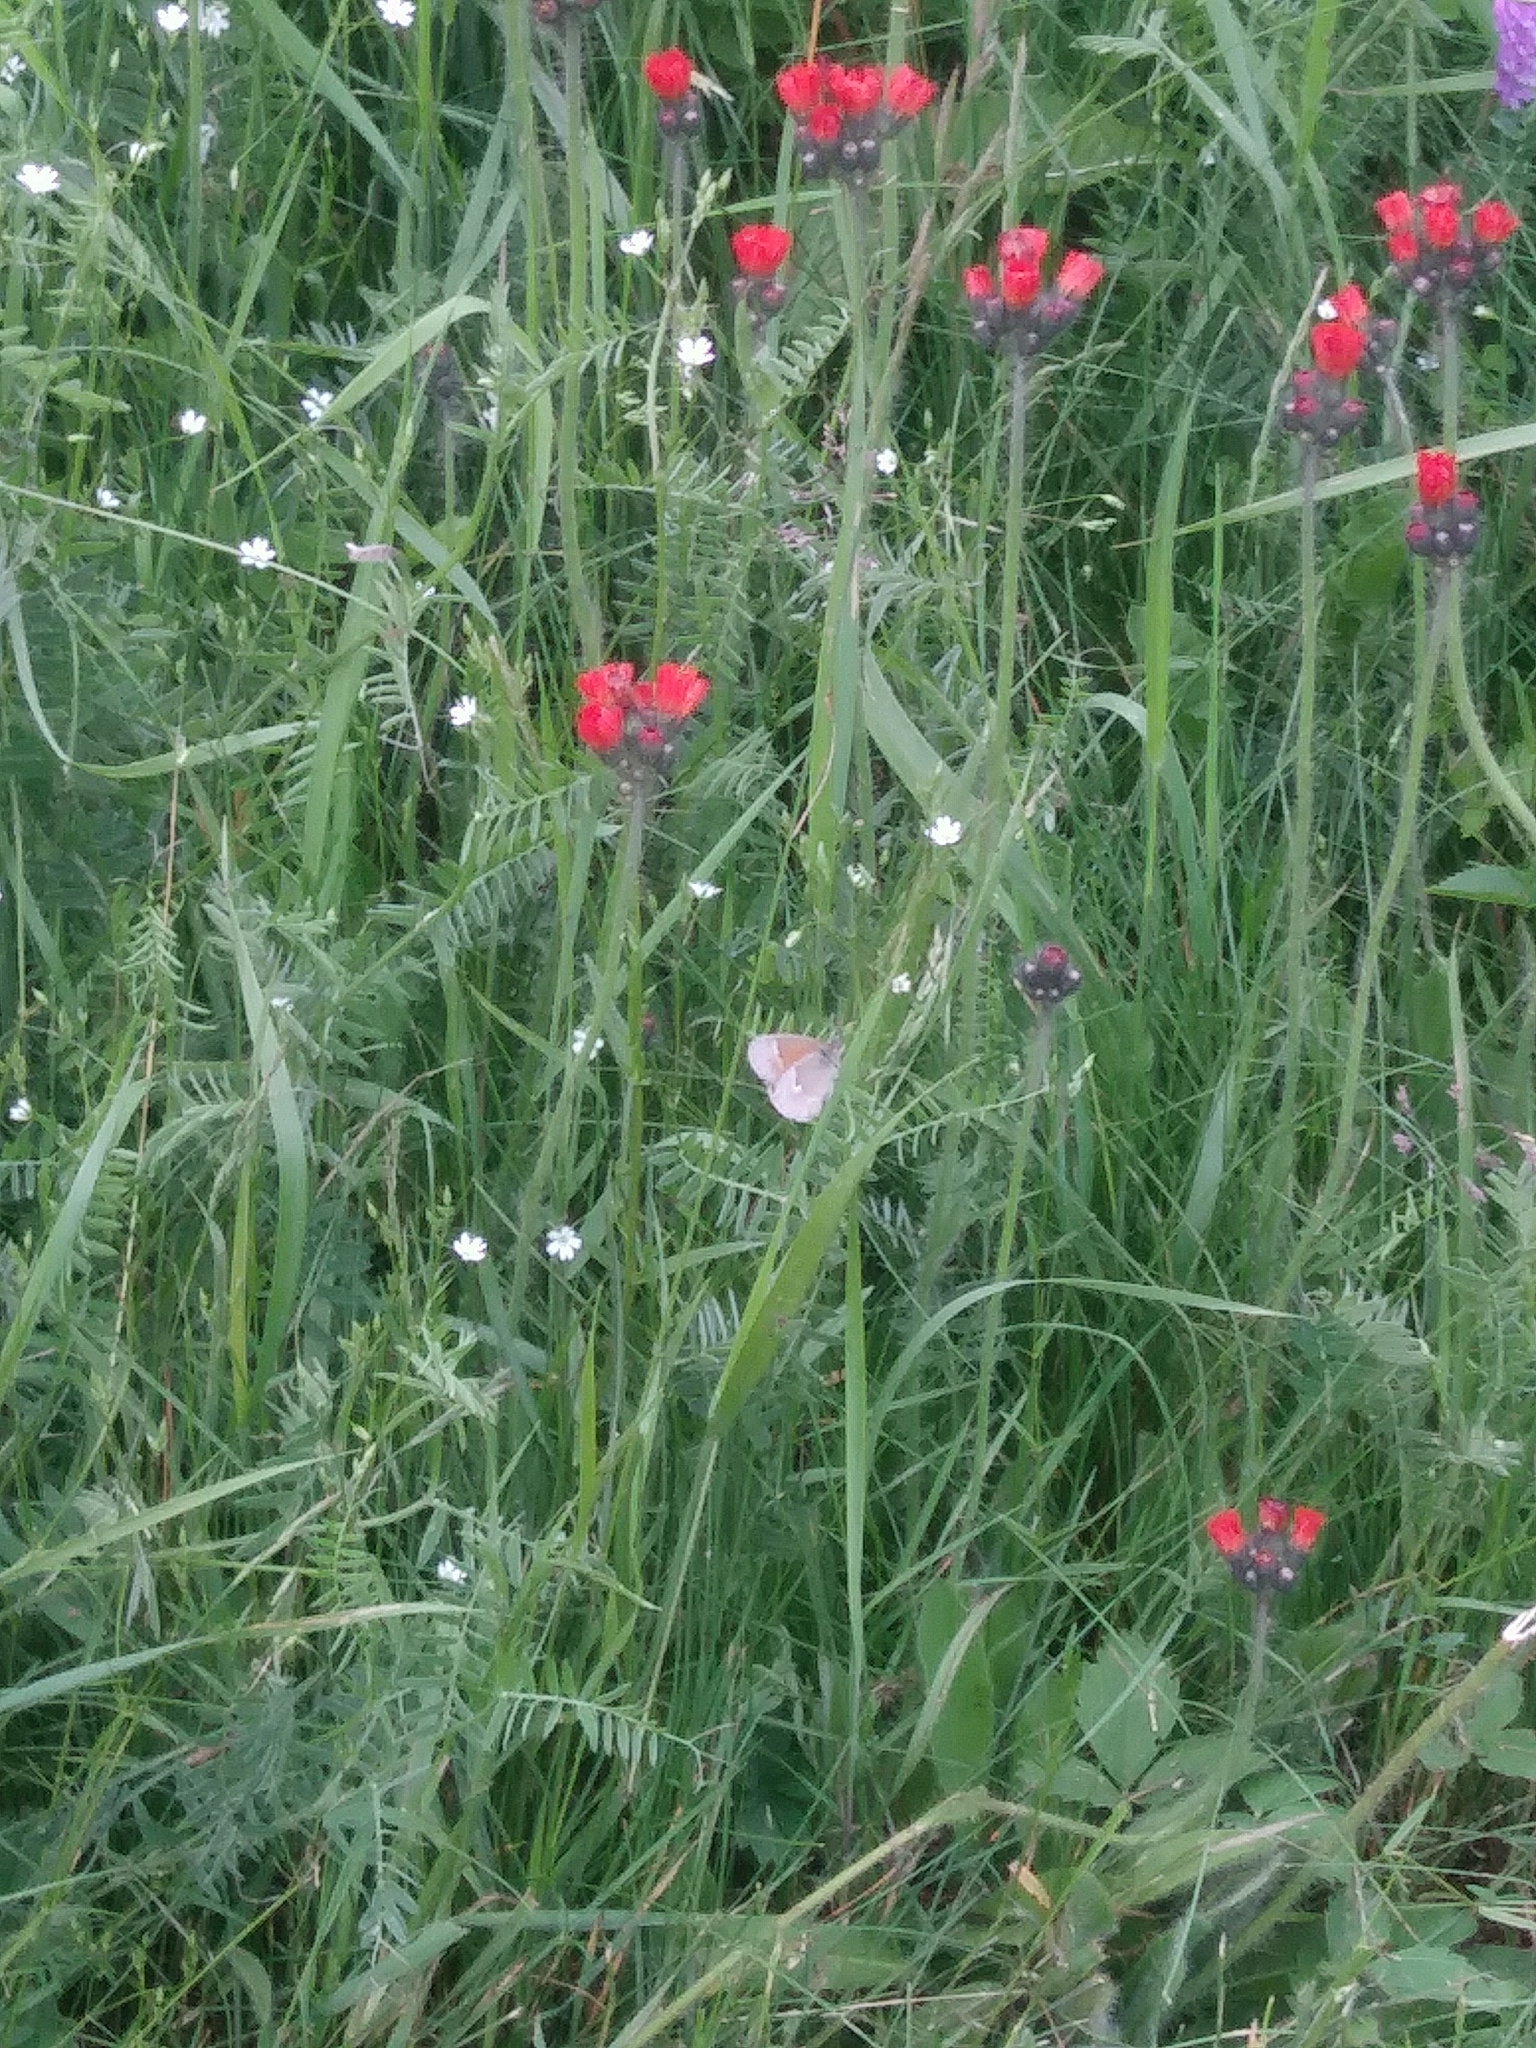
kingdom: Animalia
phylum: Arthropoda
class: Insecta
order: Lepidoptera
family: Nymphalidae
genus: Coenonympha
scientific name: Coenonympha california
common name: Common ringlet
